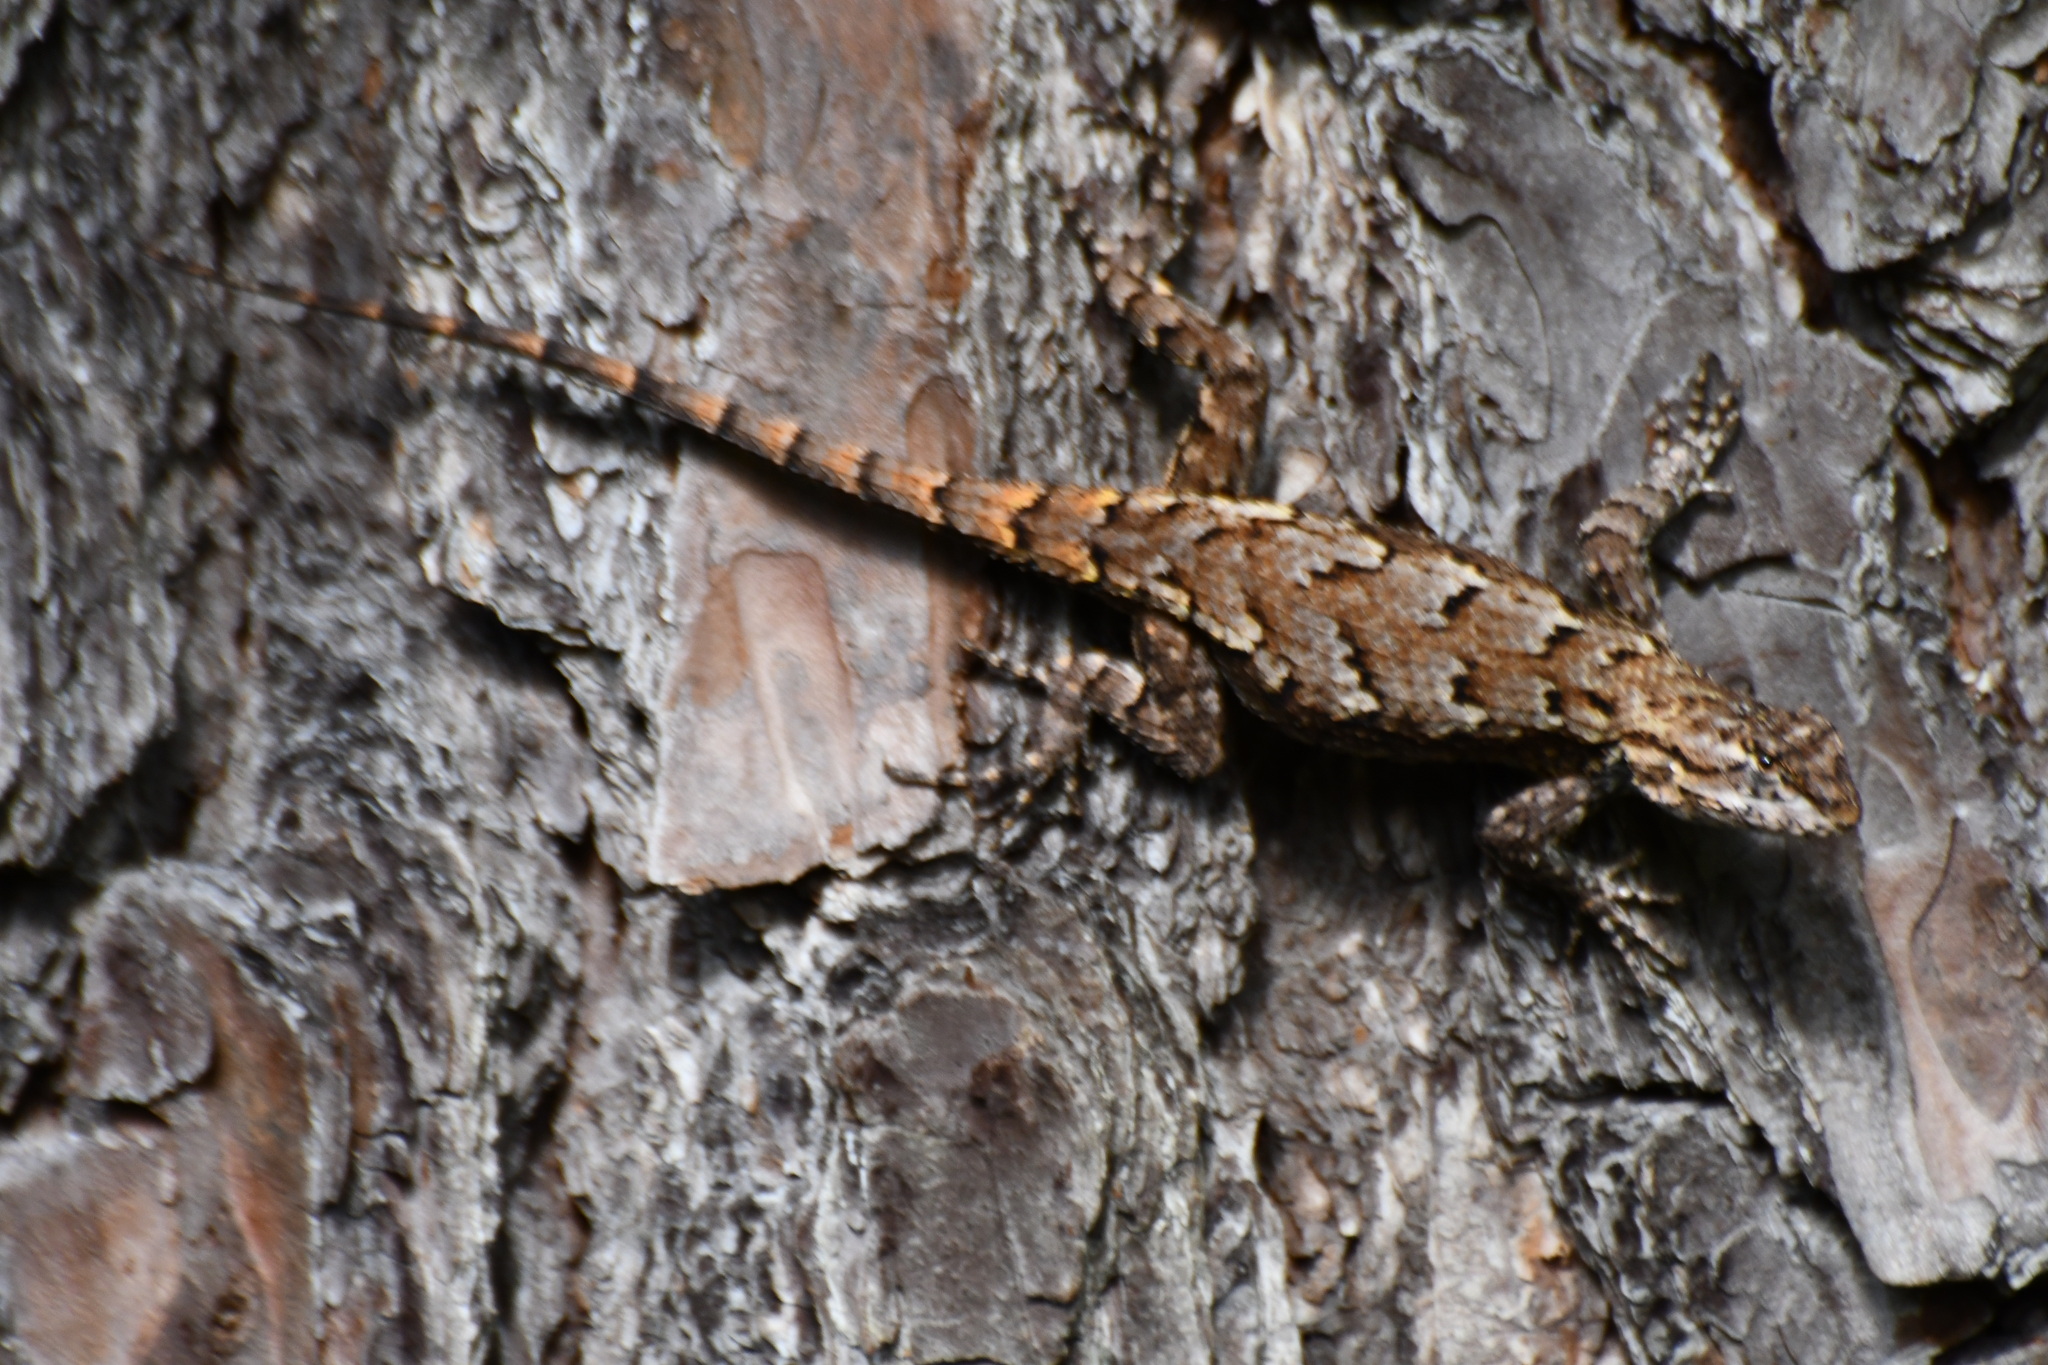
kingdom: Animalia
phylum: Chordata
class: Squamata
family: Phrynosomatidae
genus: Sceloporus
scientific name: Sceloporus undulatus
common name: Eastern fence lizard
